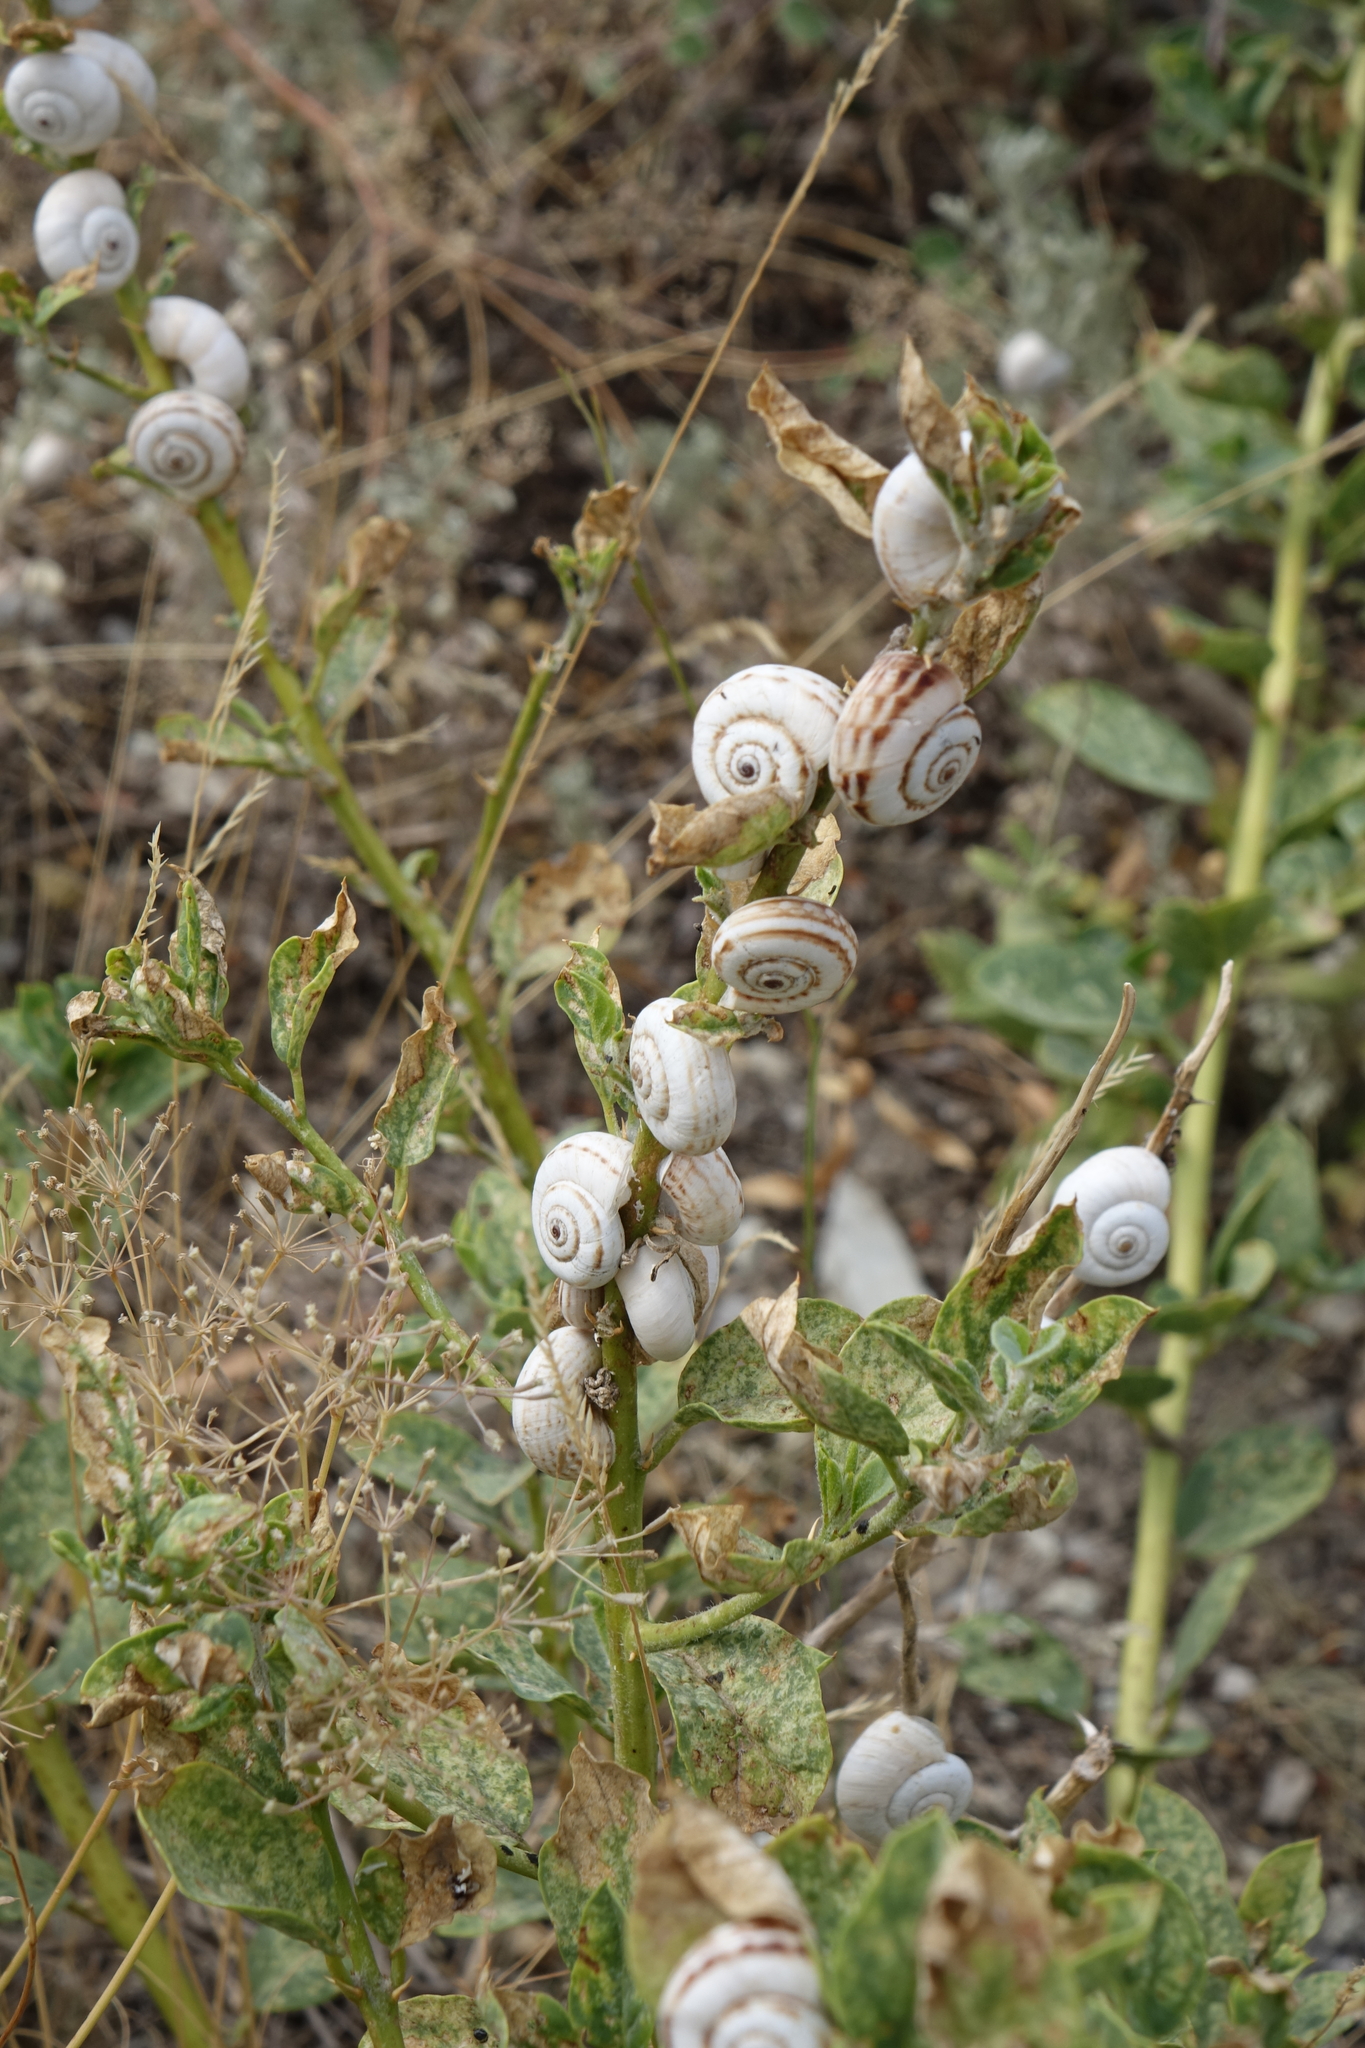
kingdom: Animalia
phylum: Mollusca
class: Gastropoda
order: Stylommatophora
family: Geomitridae
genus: Xeropicta
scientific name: Xeropicta derbentina
